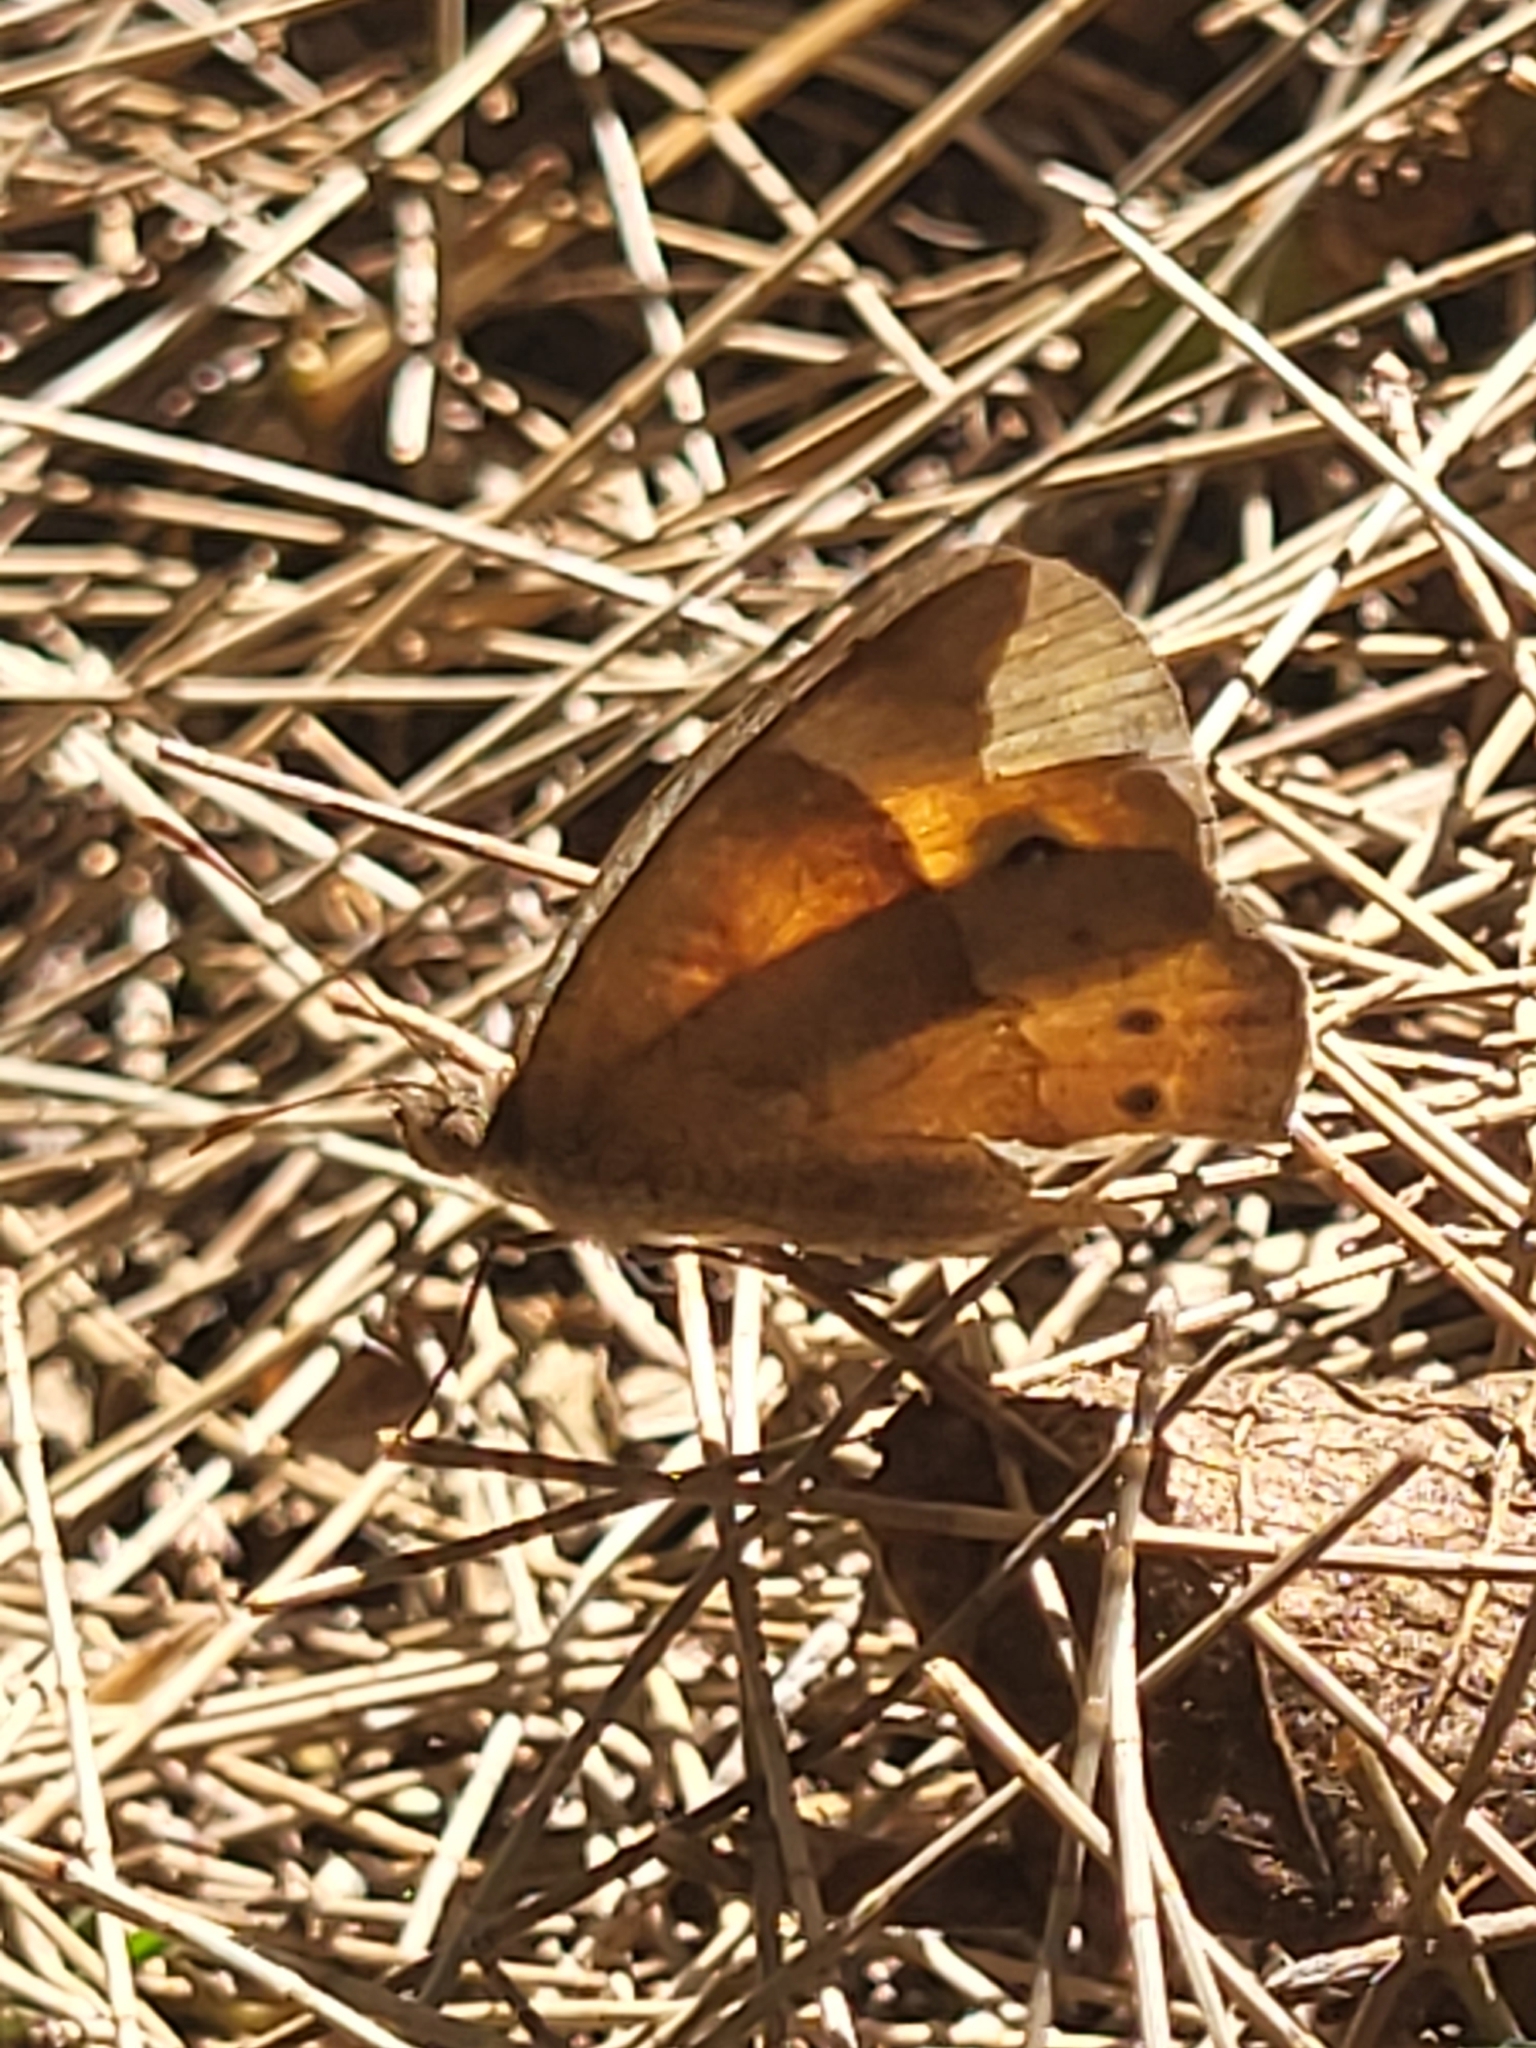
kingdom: Animalia
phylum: Arthropoda
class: Insecta
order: Lepidoptera
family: Nymphalidae
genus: Henotesia
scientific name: Henotesia narcissus
